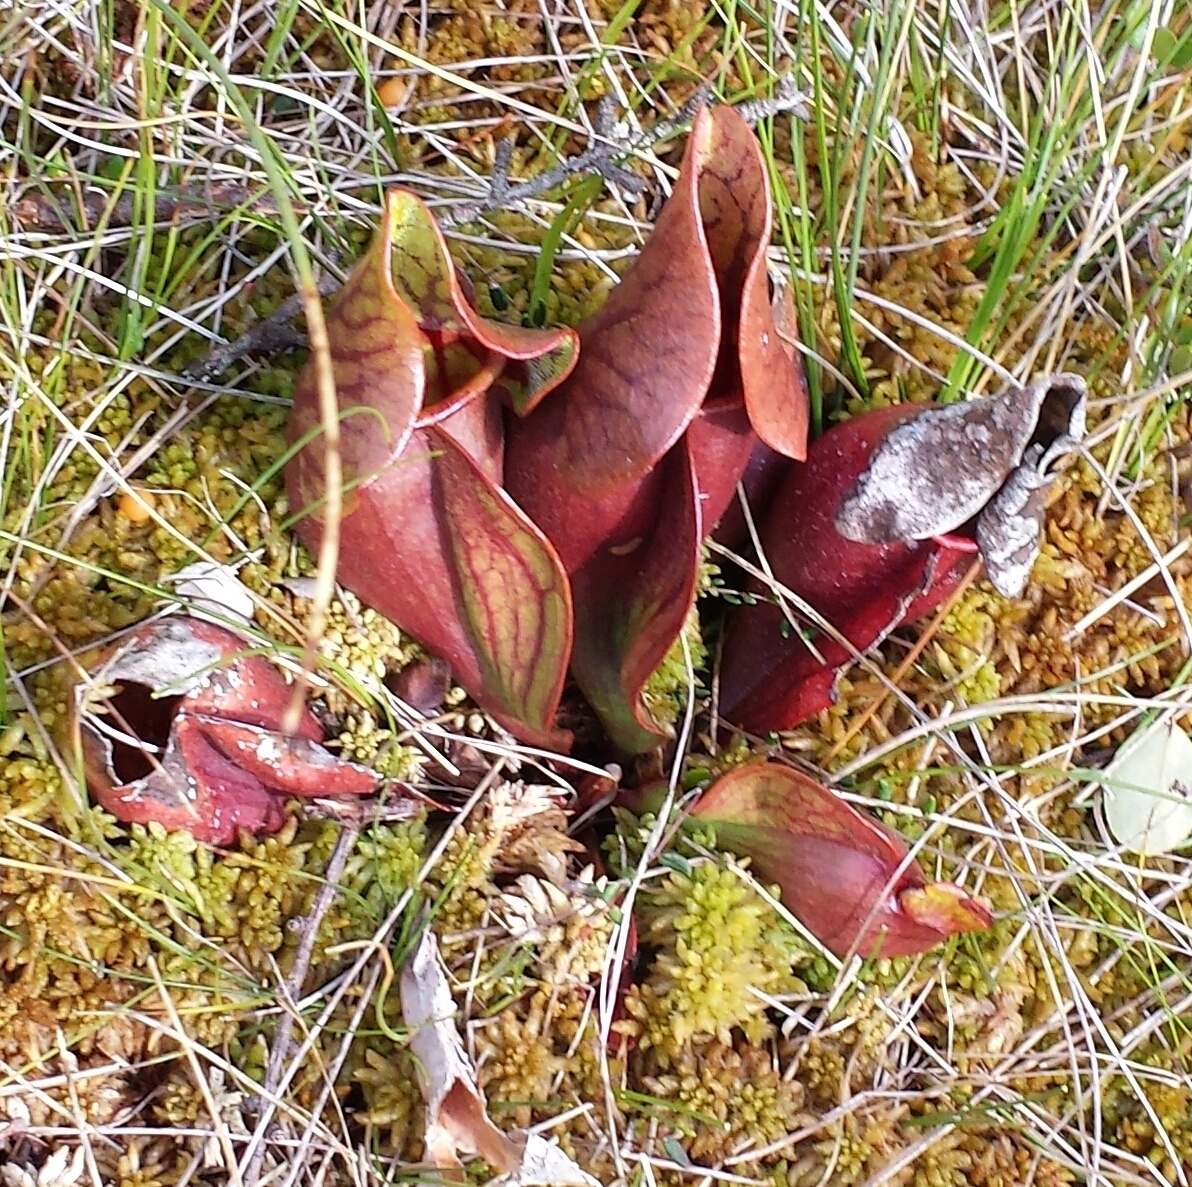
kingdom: Plantae
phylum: Tracheophyta
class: Magnoliopsida
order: Ericales
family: Sarraceniaceae
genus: Sarracenia
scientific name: Sarracenia purpurea
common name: Pitcherplant
